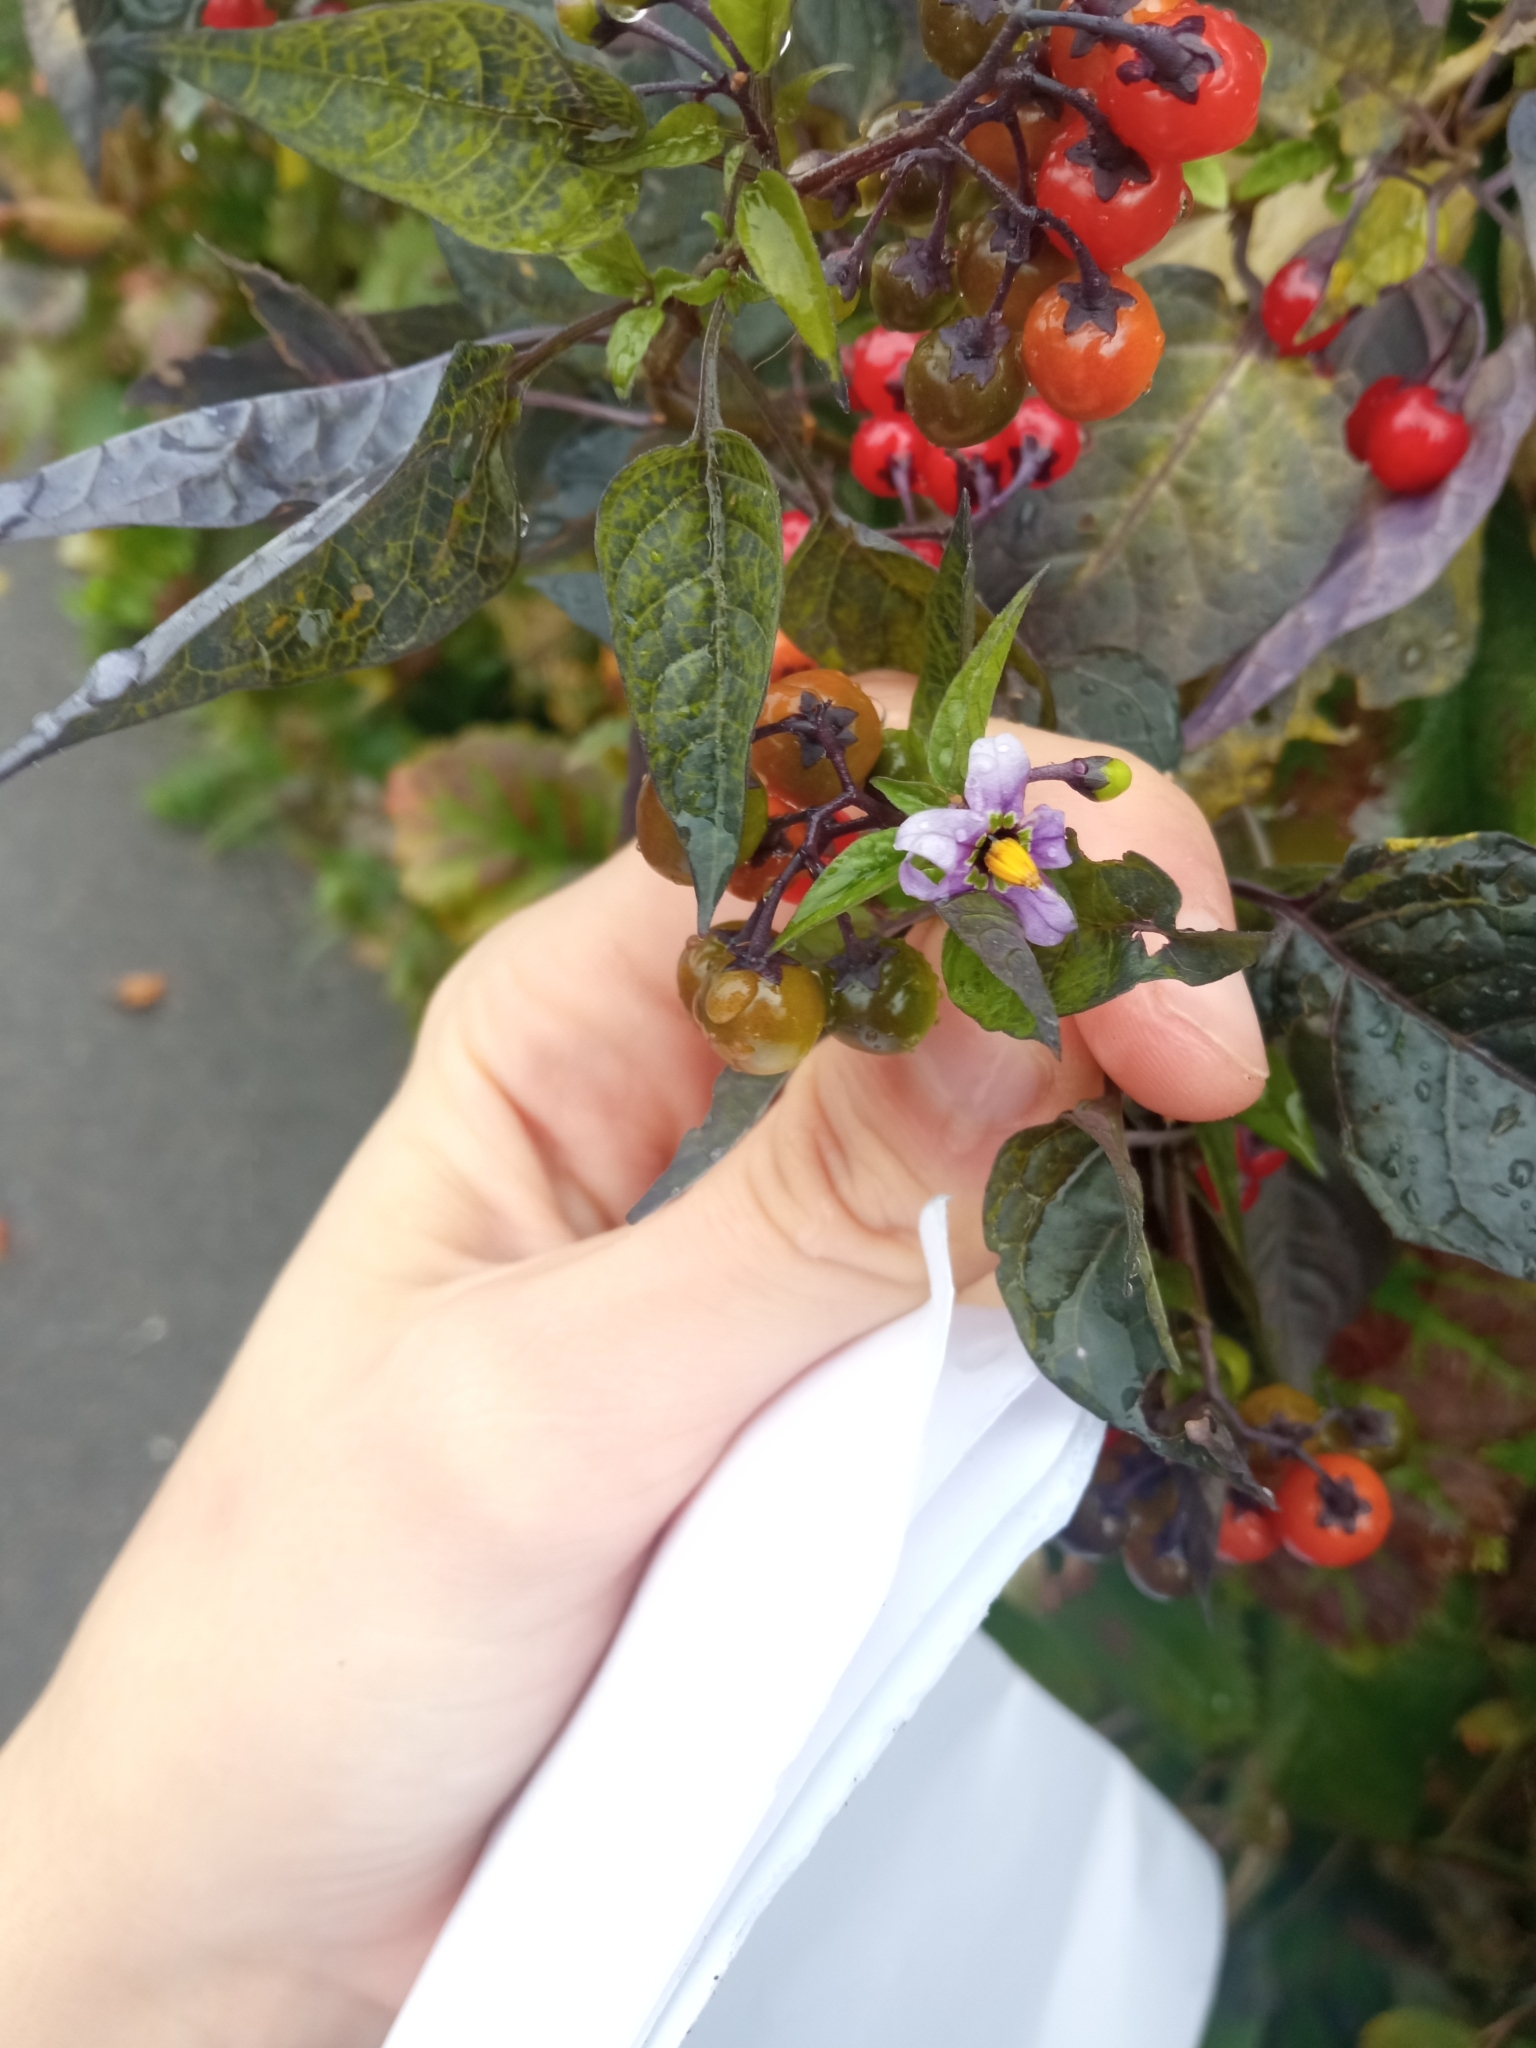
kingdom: Plantae
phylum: Tracheophyta
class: Magnoliopsida
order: Solanales
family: Solanaceae
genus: Solanum
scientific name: Solanum dulcamara
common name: Climbing nightshade
